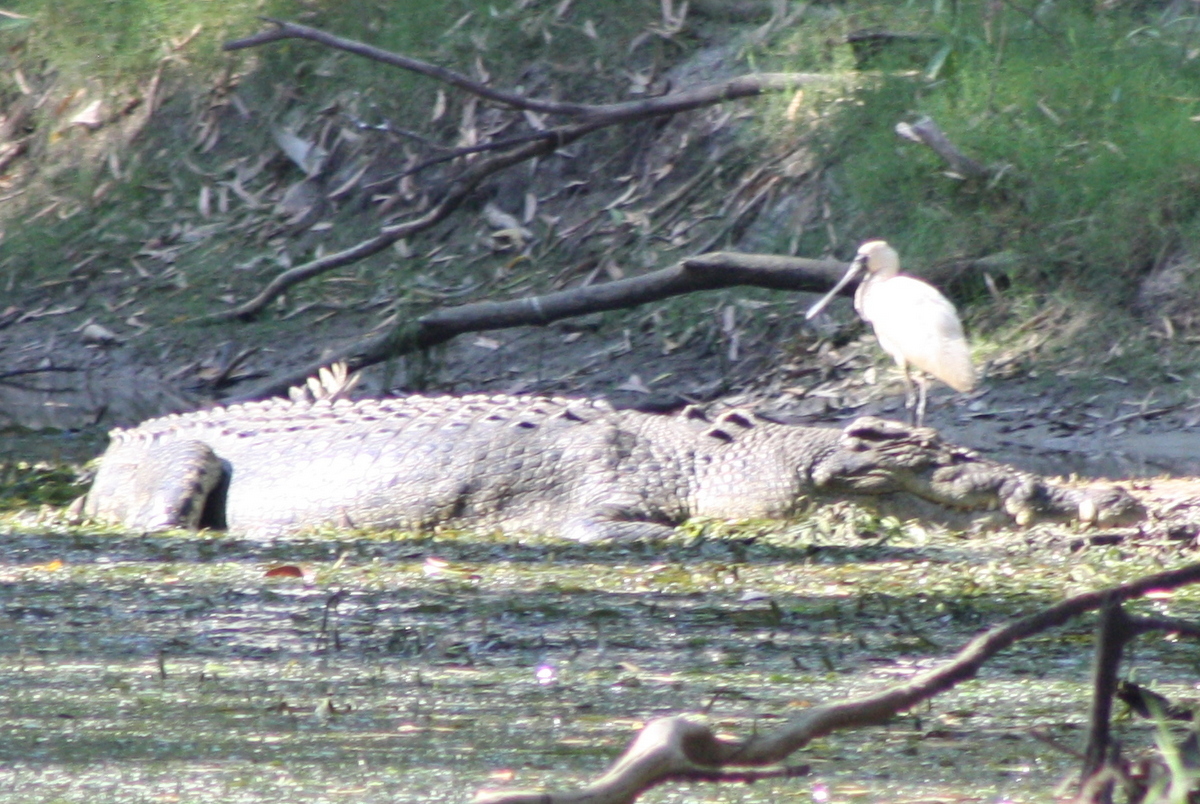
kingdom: Animalia
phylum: Chordata
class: Aves
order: Pelecaniformes
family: Threskiornithidae
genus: Platalea
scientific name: Platalea regia
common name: Royal spoonbill
